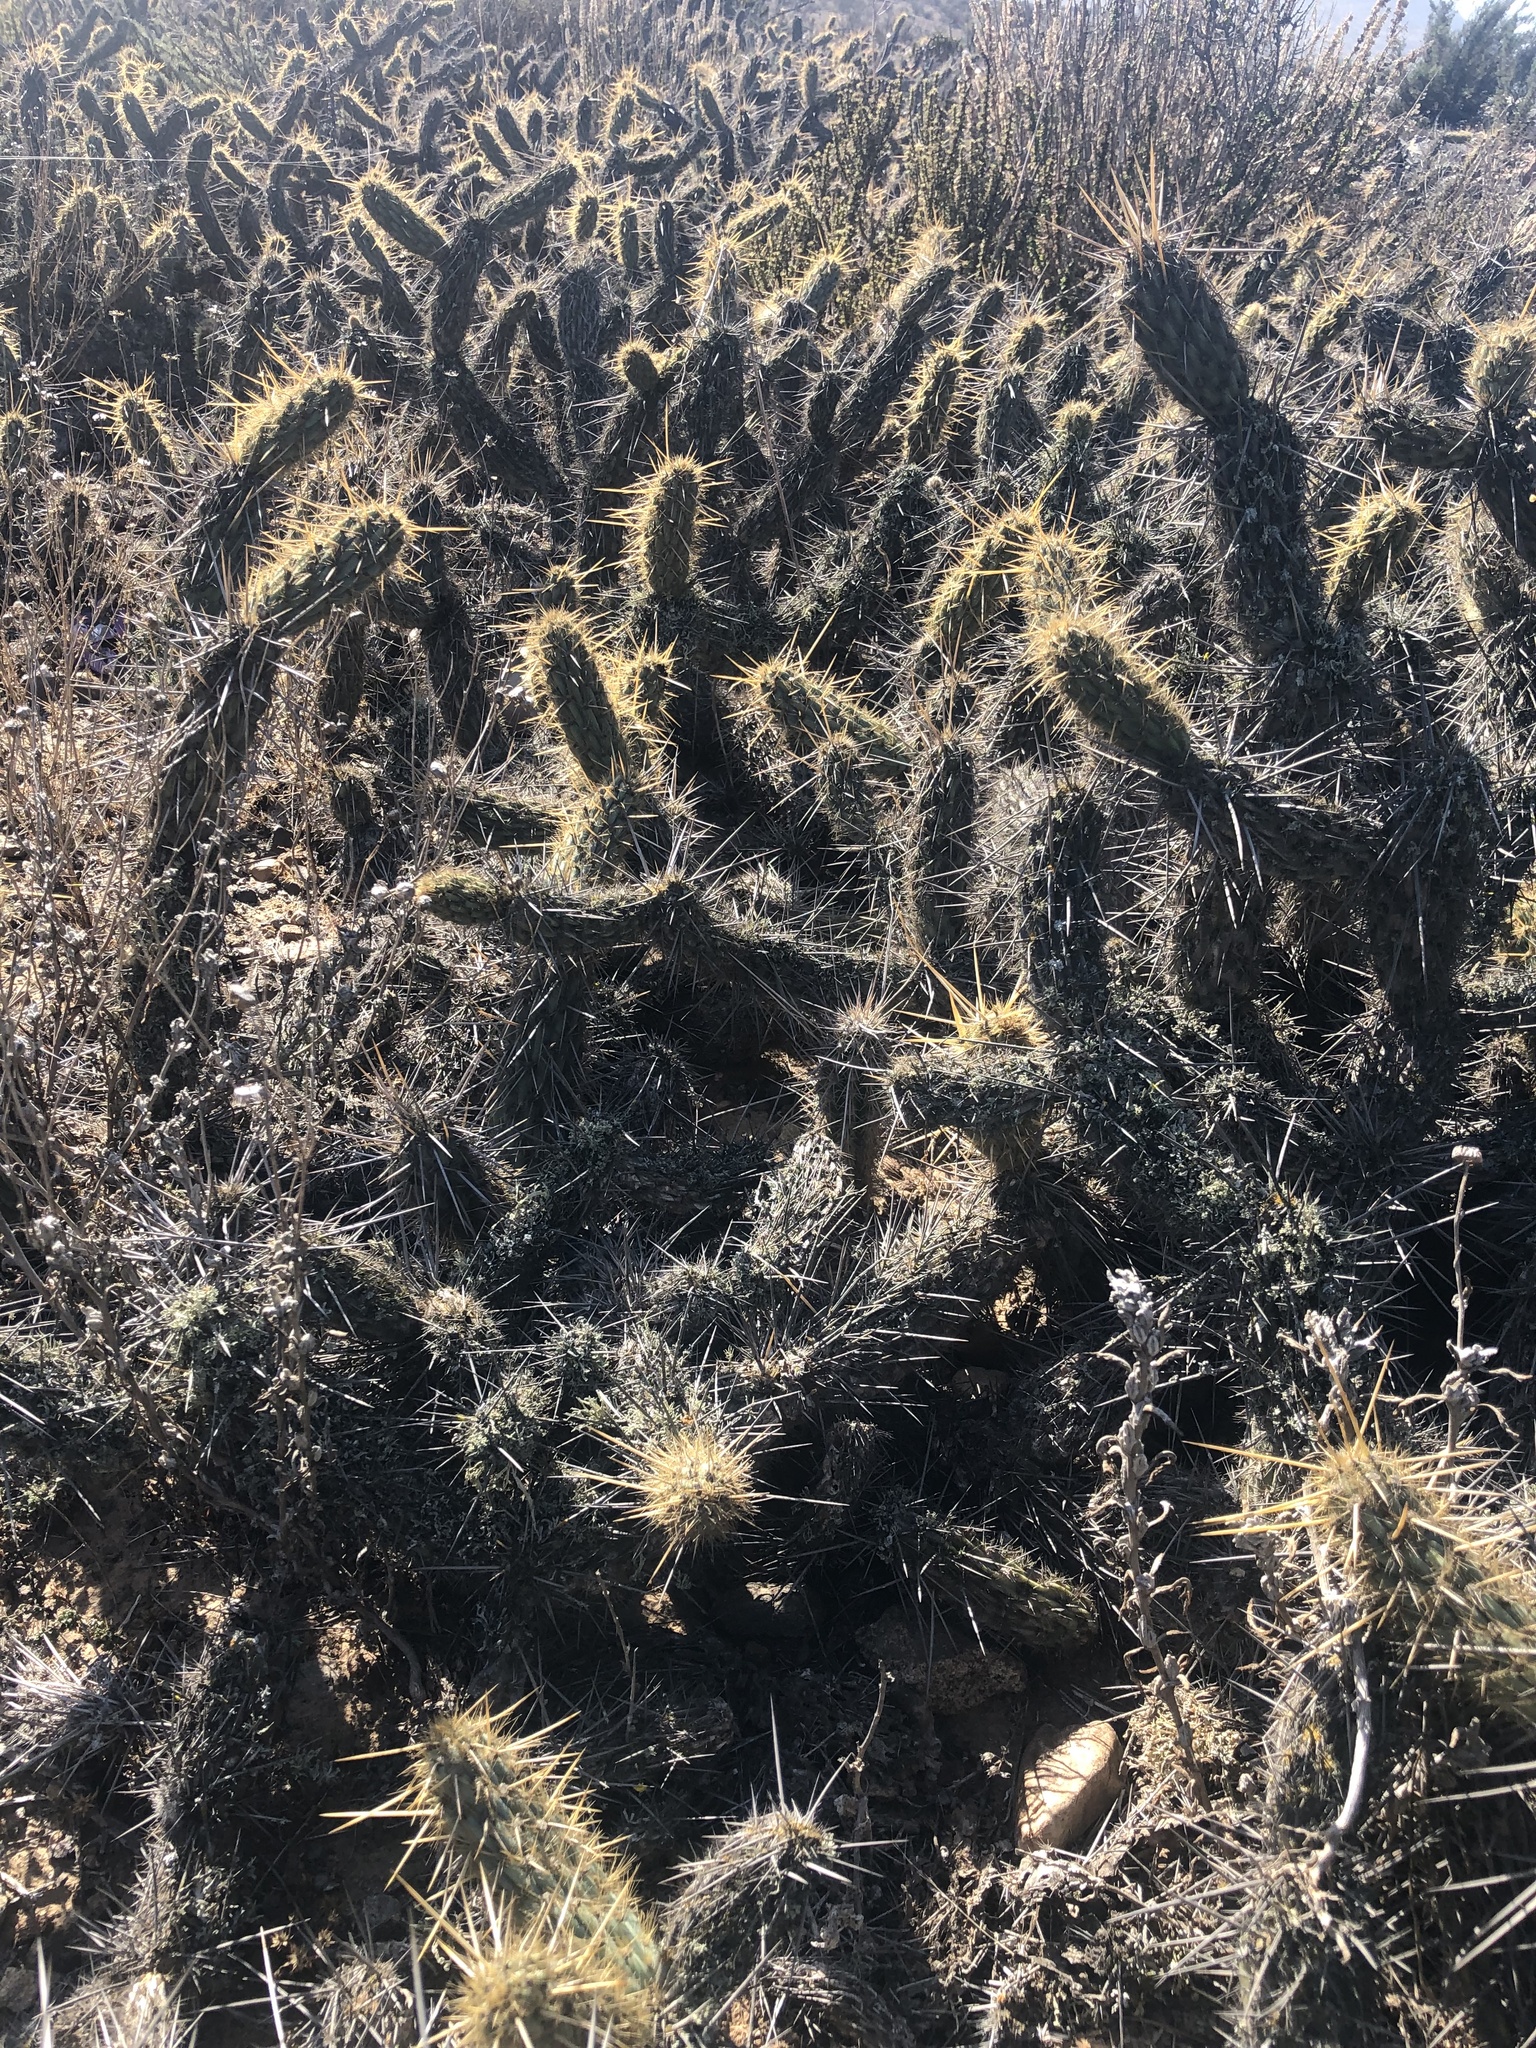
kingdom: Plantae
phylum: Tracheophyta
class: Magnoliopsida
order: Caryophyllales
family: Cactaceae
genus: Miqueliopuntia
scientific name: Miqueliopuntia miquelii
